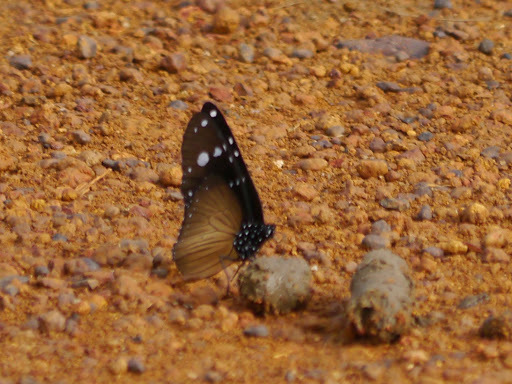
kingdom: Animalia
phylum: Arthropoda
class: Insecta
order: Lepidoptera
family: Nymphalidae
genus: Amauris
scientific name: Amauris vashti
